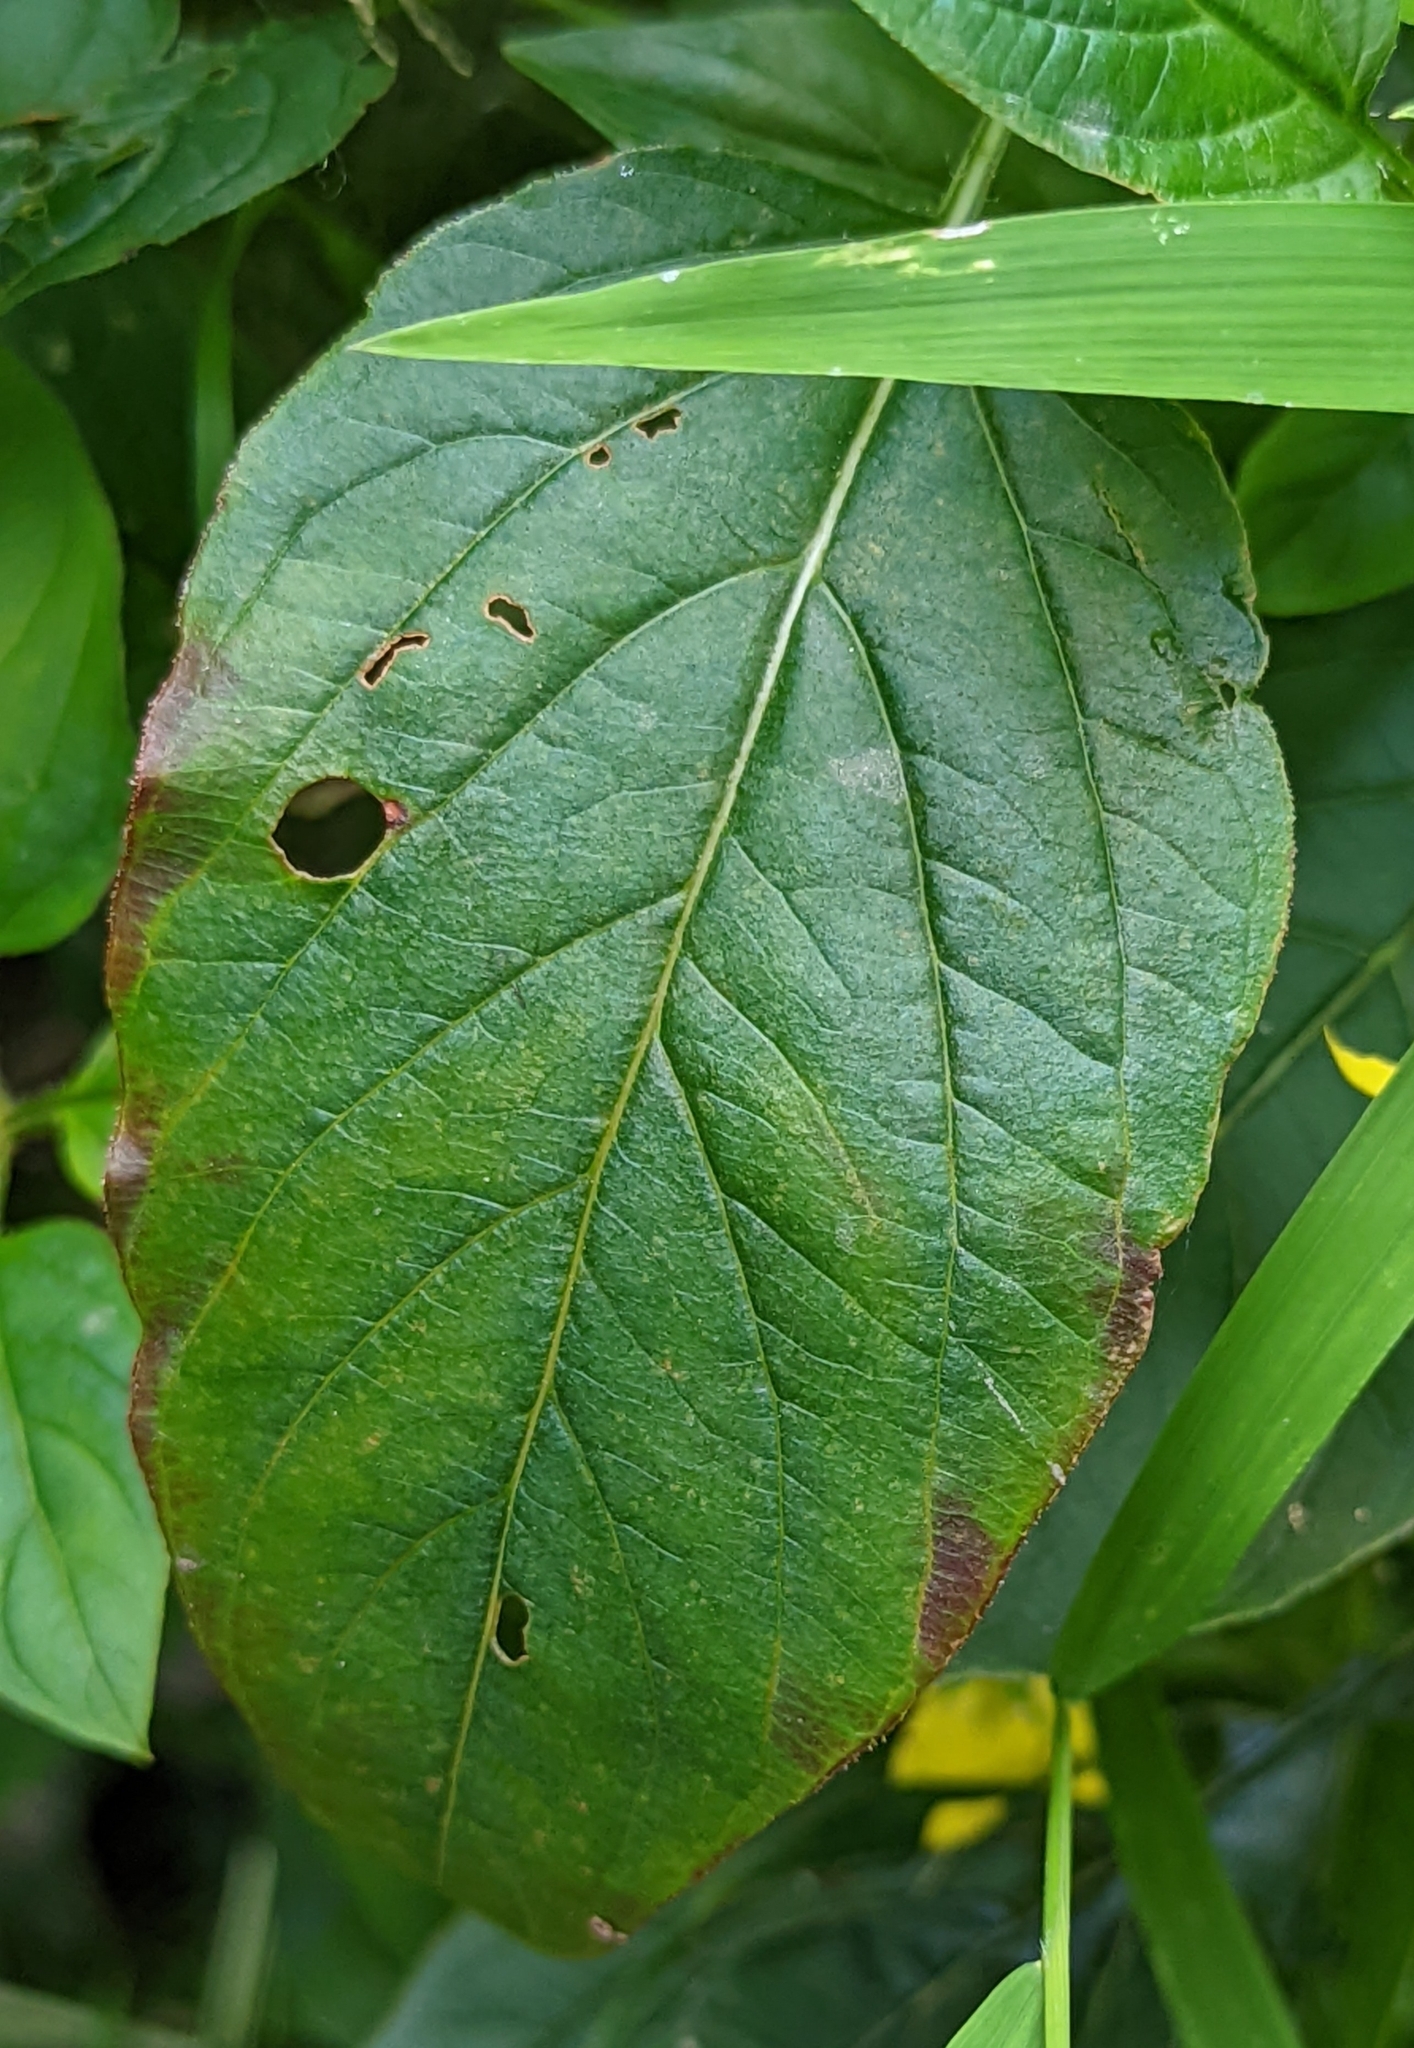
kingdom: Plantae
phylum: Tracheophyta
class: Magnoliopsida
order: Ericales
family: Primulaceae
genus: Lysimachia
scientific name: Lysimachia ciliata
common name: Fringed loosestrife
